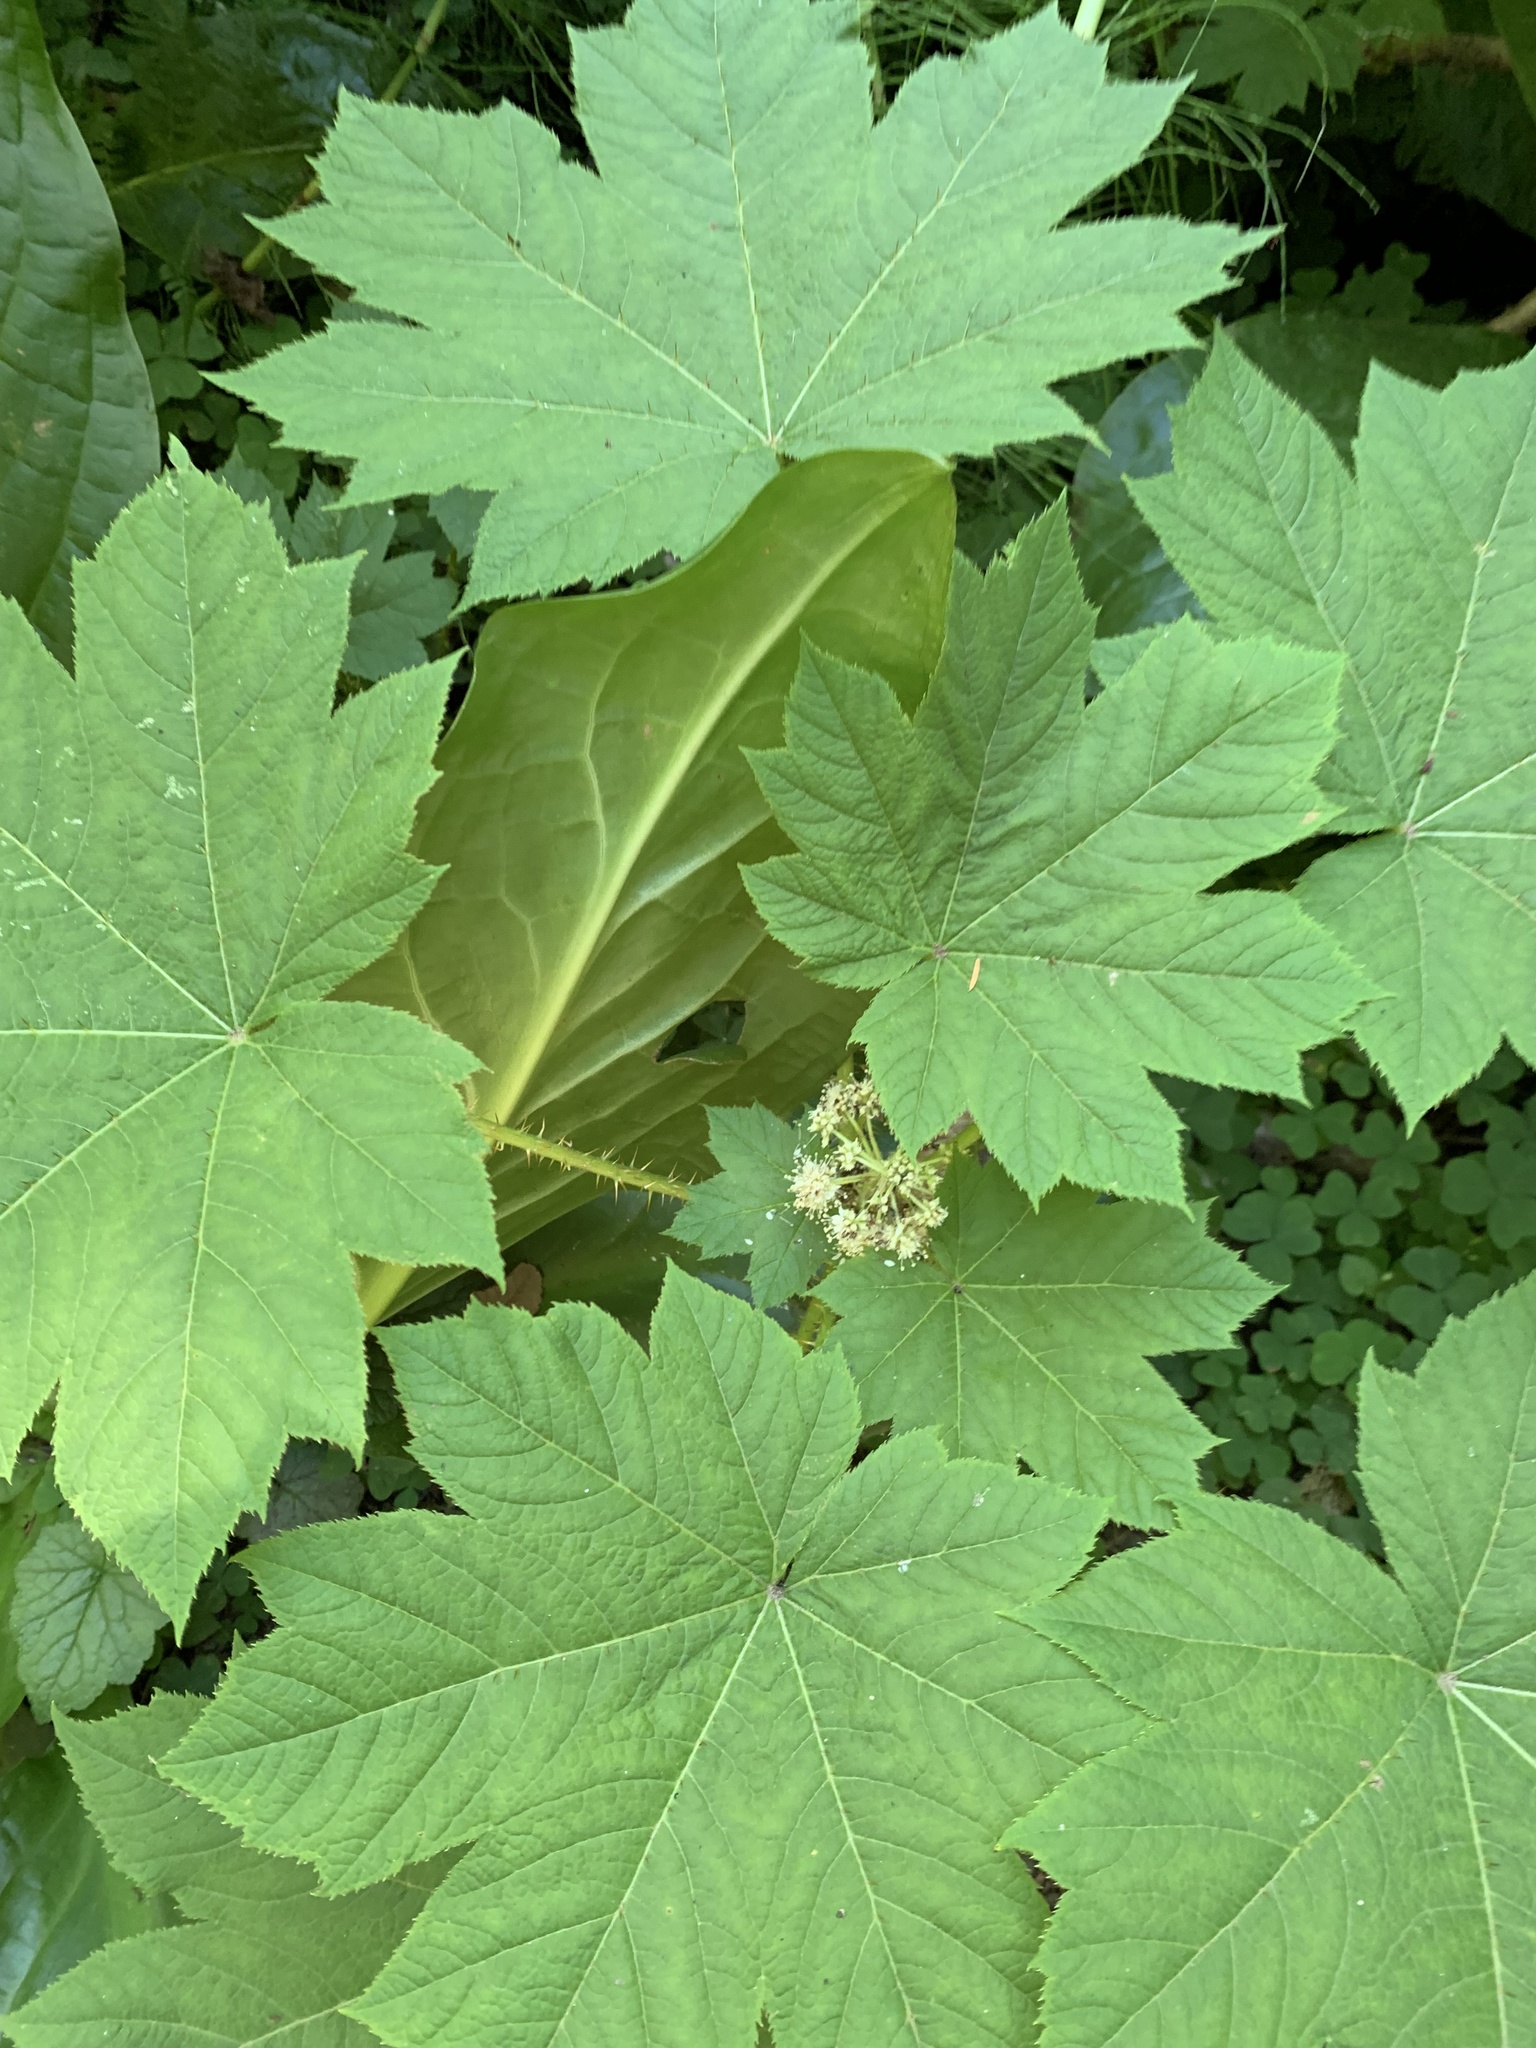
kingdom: Plantae
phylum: Tracheophyta
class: Magnoliopsida
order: Apiales
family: Araliaceae
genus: Oplopanax
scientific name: Oplopanax horridus
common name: Devil's walking-stick
